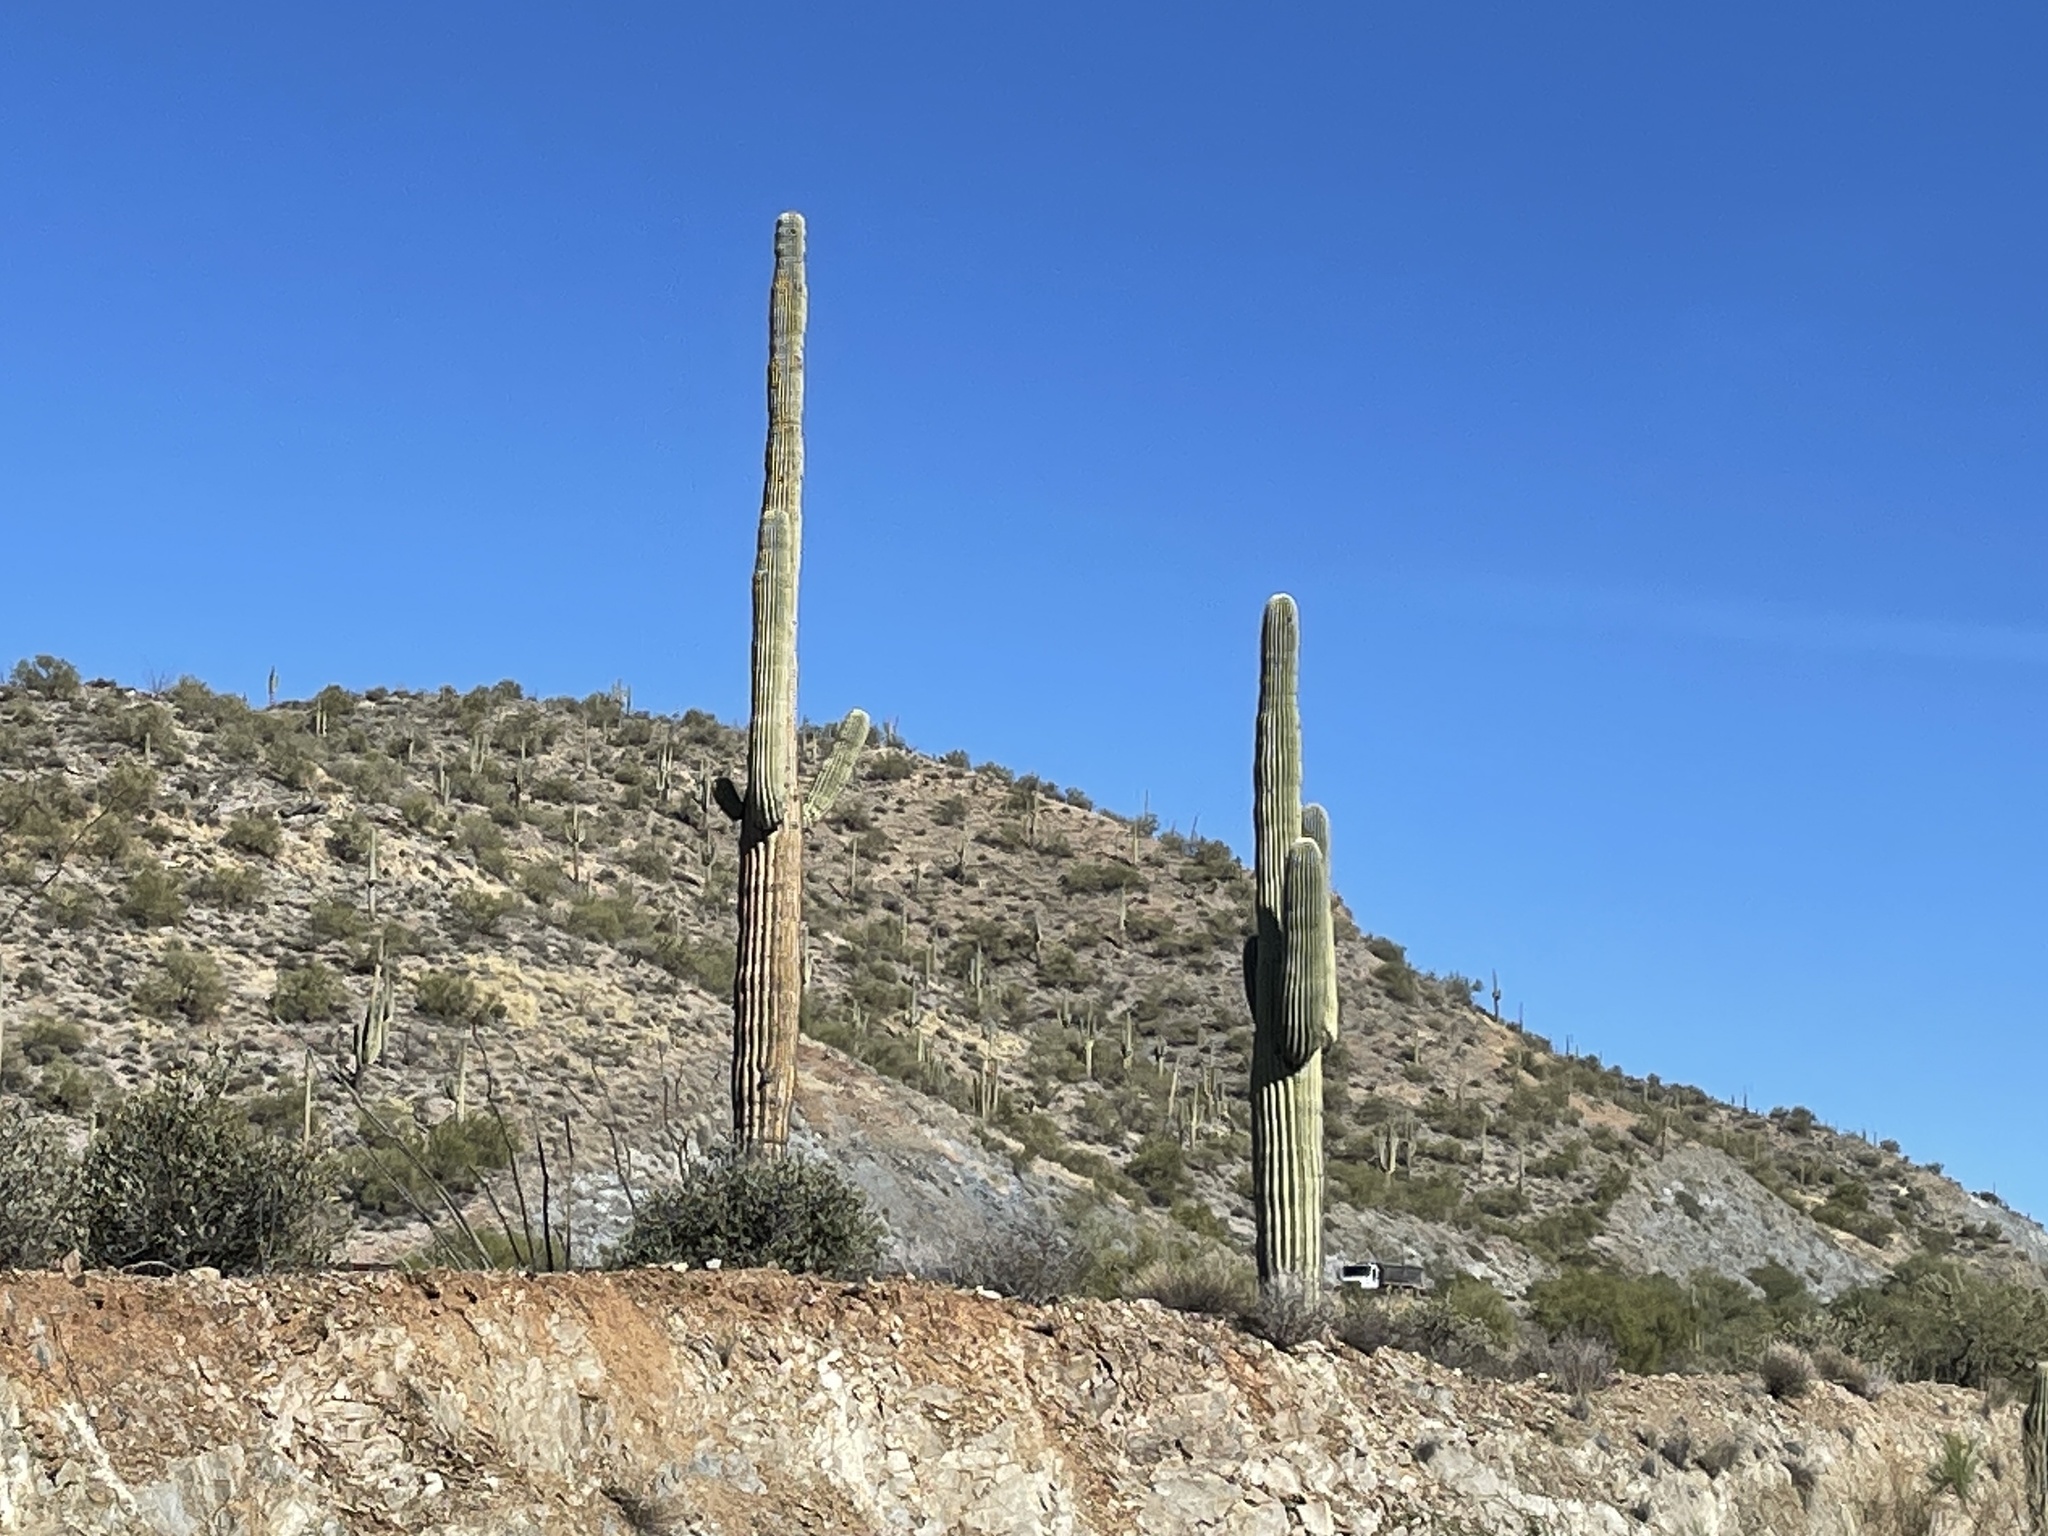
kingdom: Plantae
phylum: Tracheophyta
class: Magnoliopsida
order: Caryophyllales
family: Cactaceae
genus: Carnegiea
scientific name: Carnegiea gigantea
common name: Saguaro
